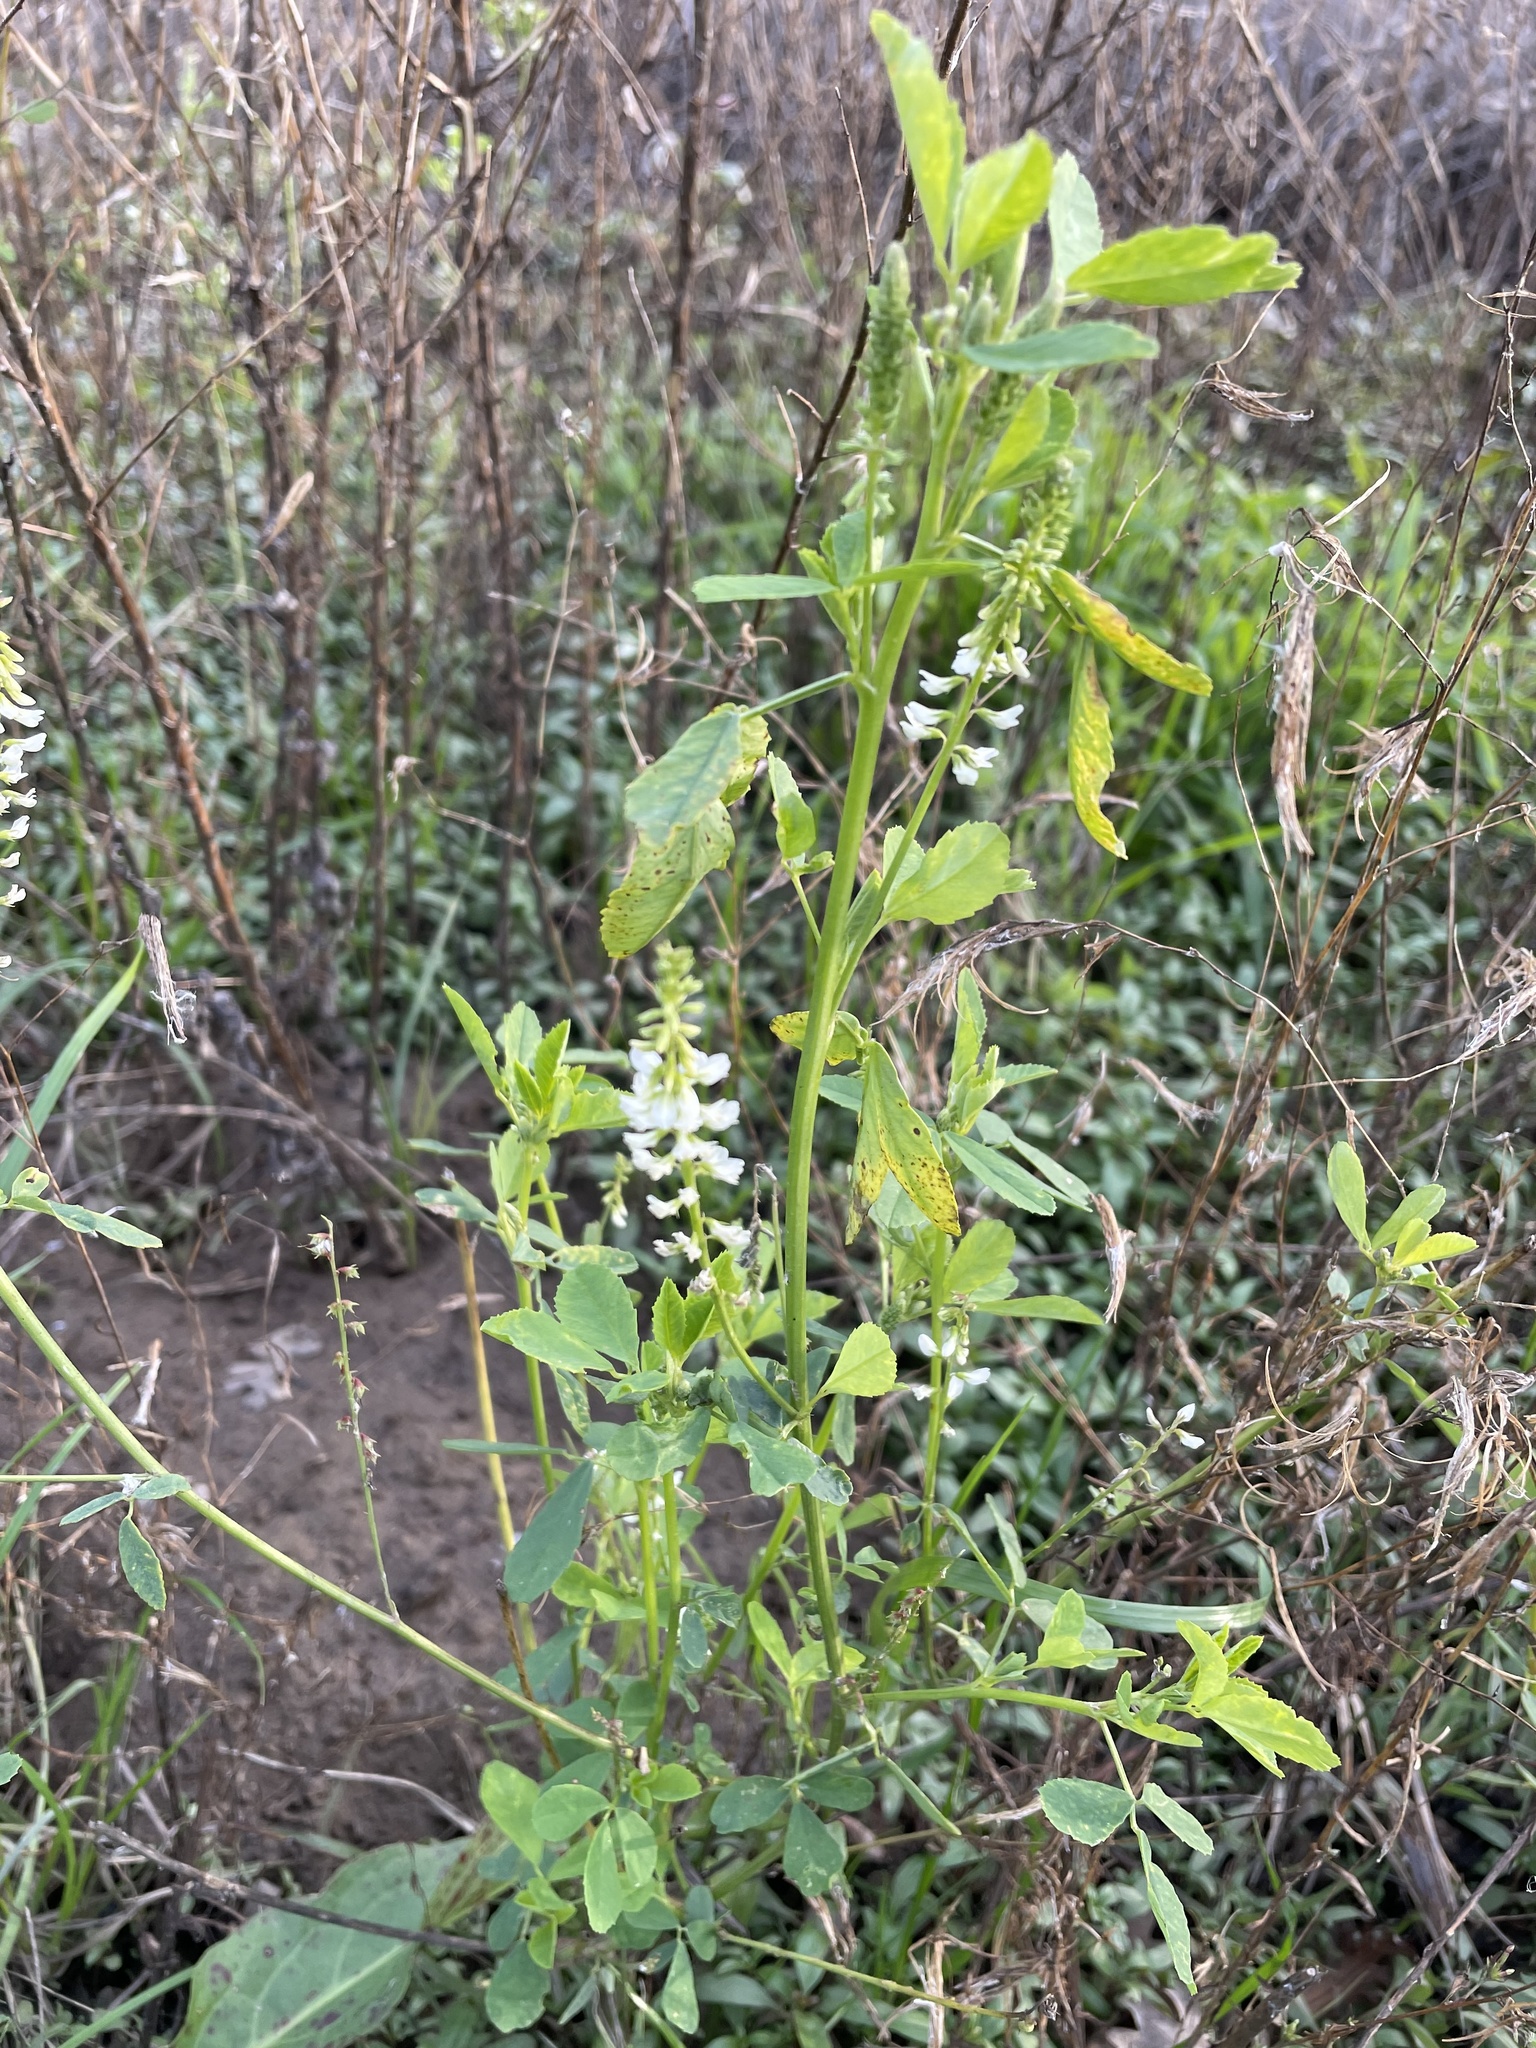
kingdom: Plantae
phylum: Tracheophyta
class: Magnoliopsida
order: Fabales
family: Fabaceae
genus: Melilotus
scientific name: Melilotus albus
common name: White melilot
